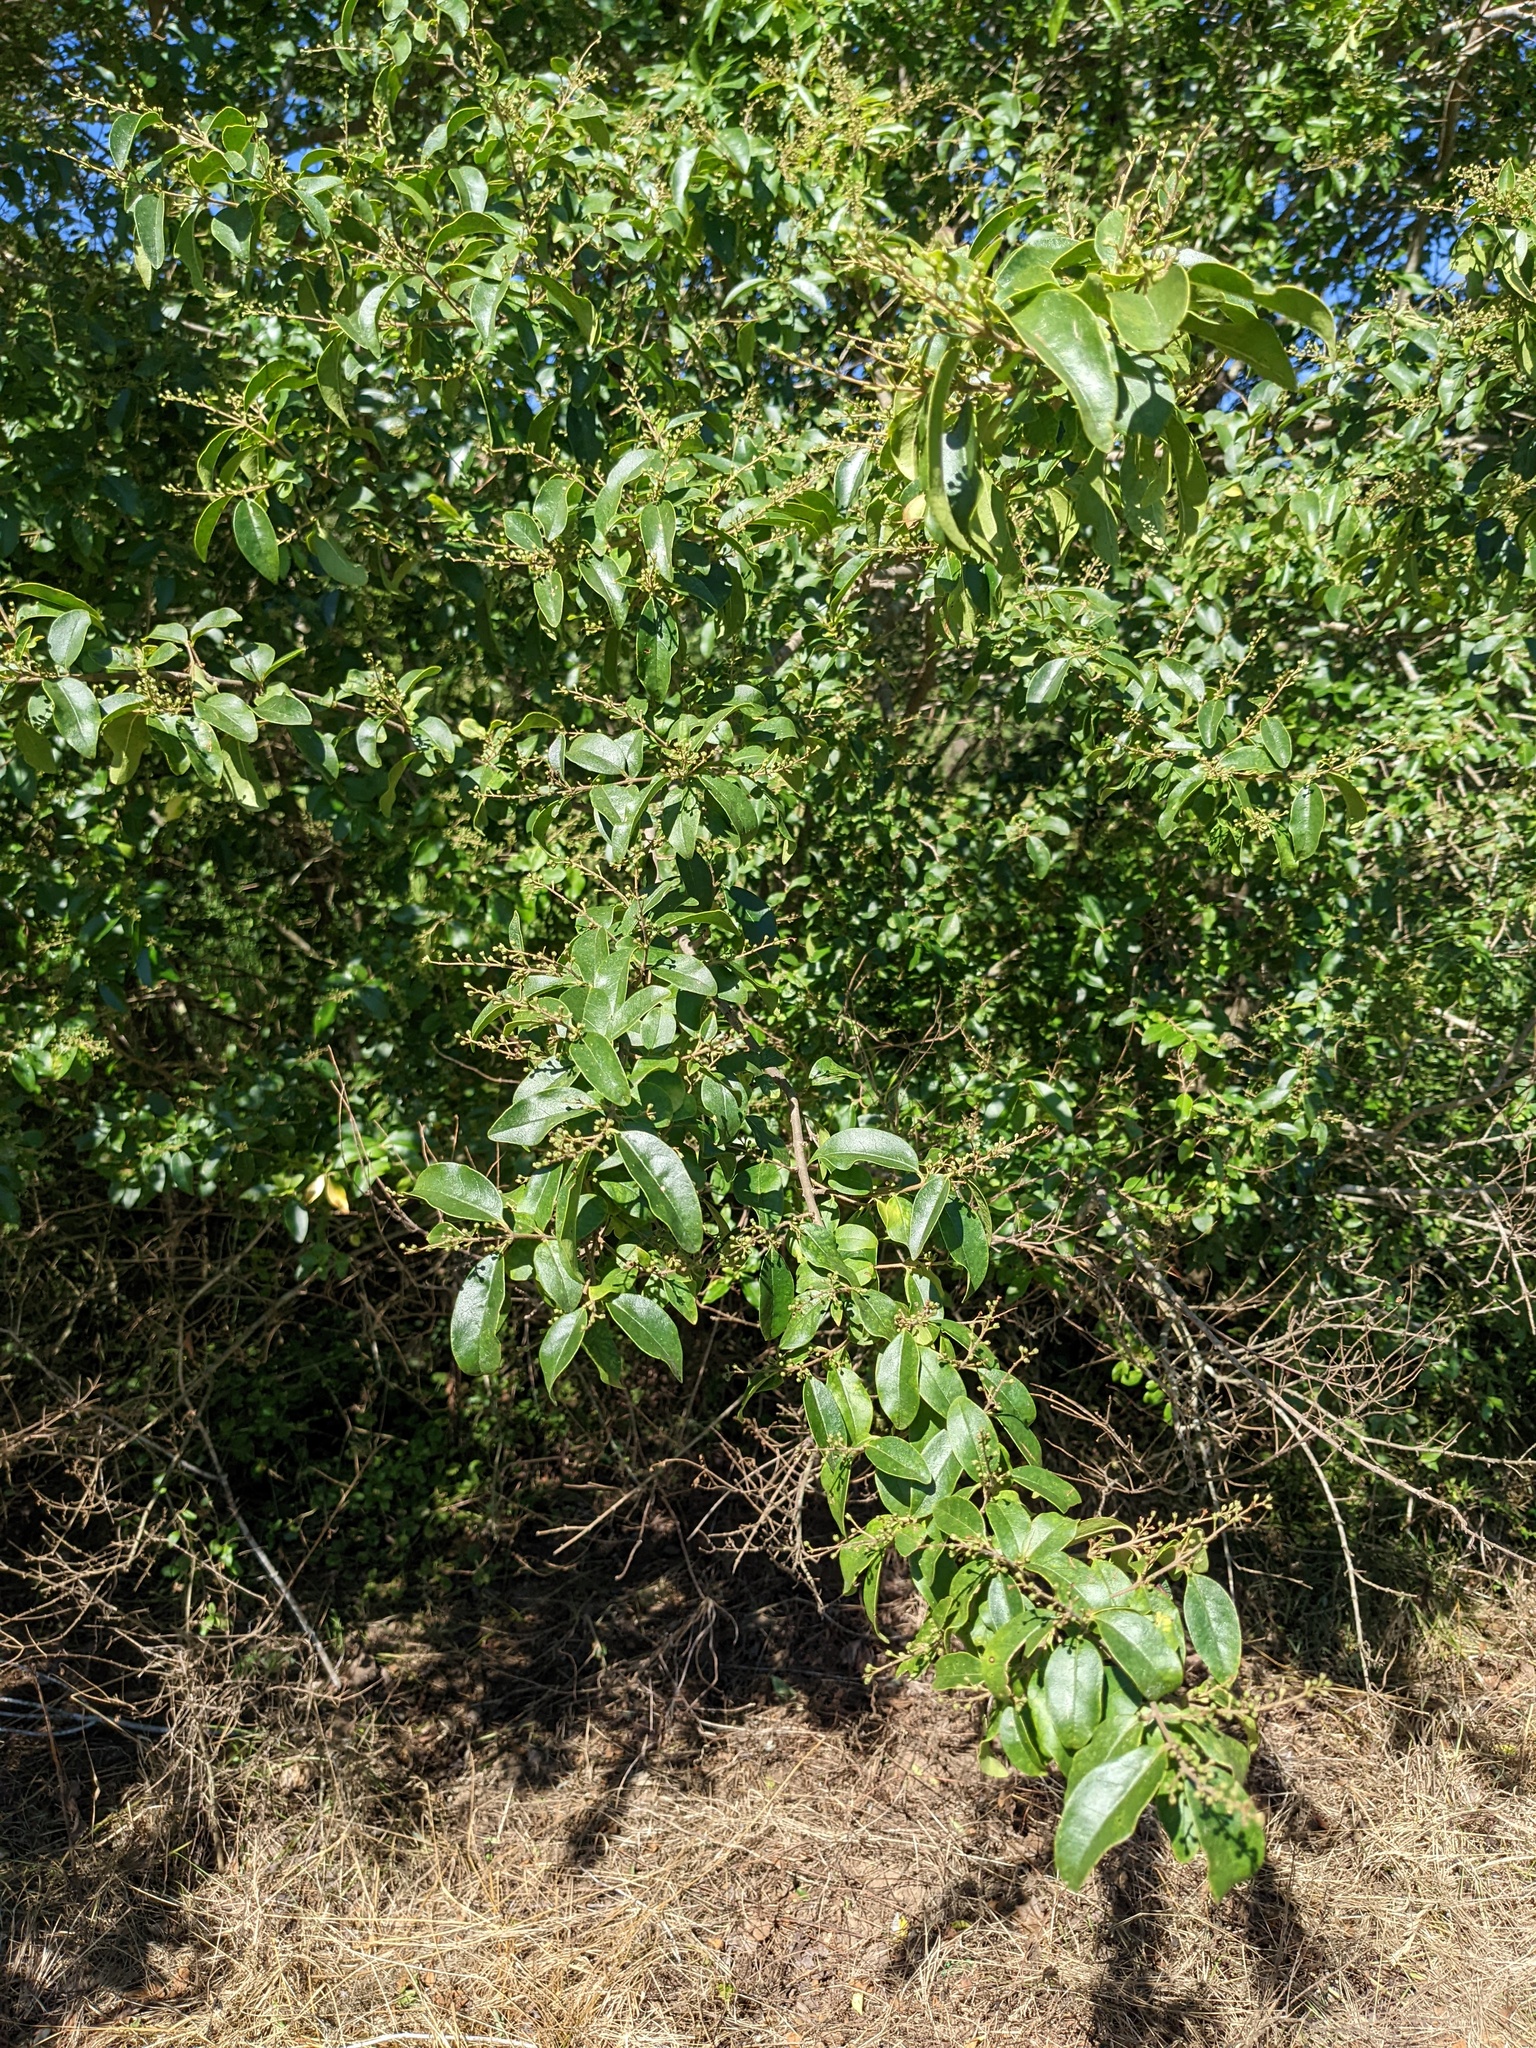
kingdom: Plantae
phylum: Tracheophyta
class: Magnoliopsida
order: Lamiales
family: Oleaceae
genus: Ligustrum
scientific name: Ligustrum sinense
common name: Chinese privet
